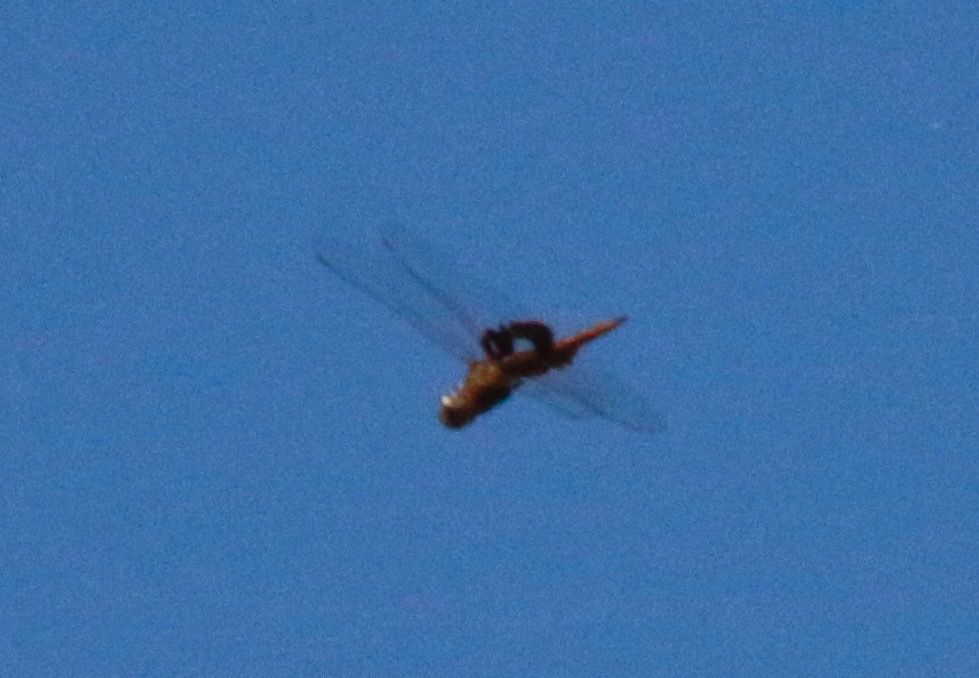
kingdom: Animalia
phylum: Arthropoda
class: Insecta
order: Odonata
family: Libellulidae
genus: Tramea
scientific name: Tramea onusta
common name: Red saddlebags
